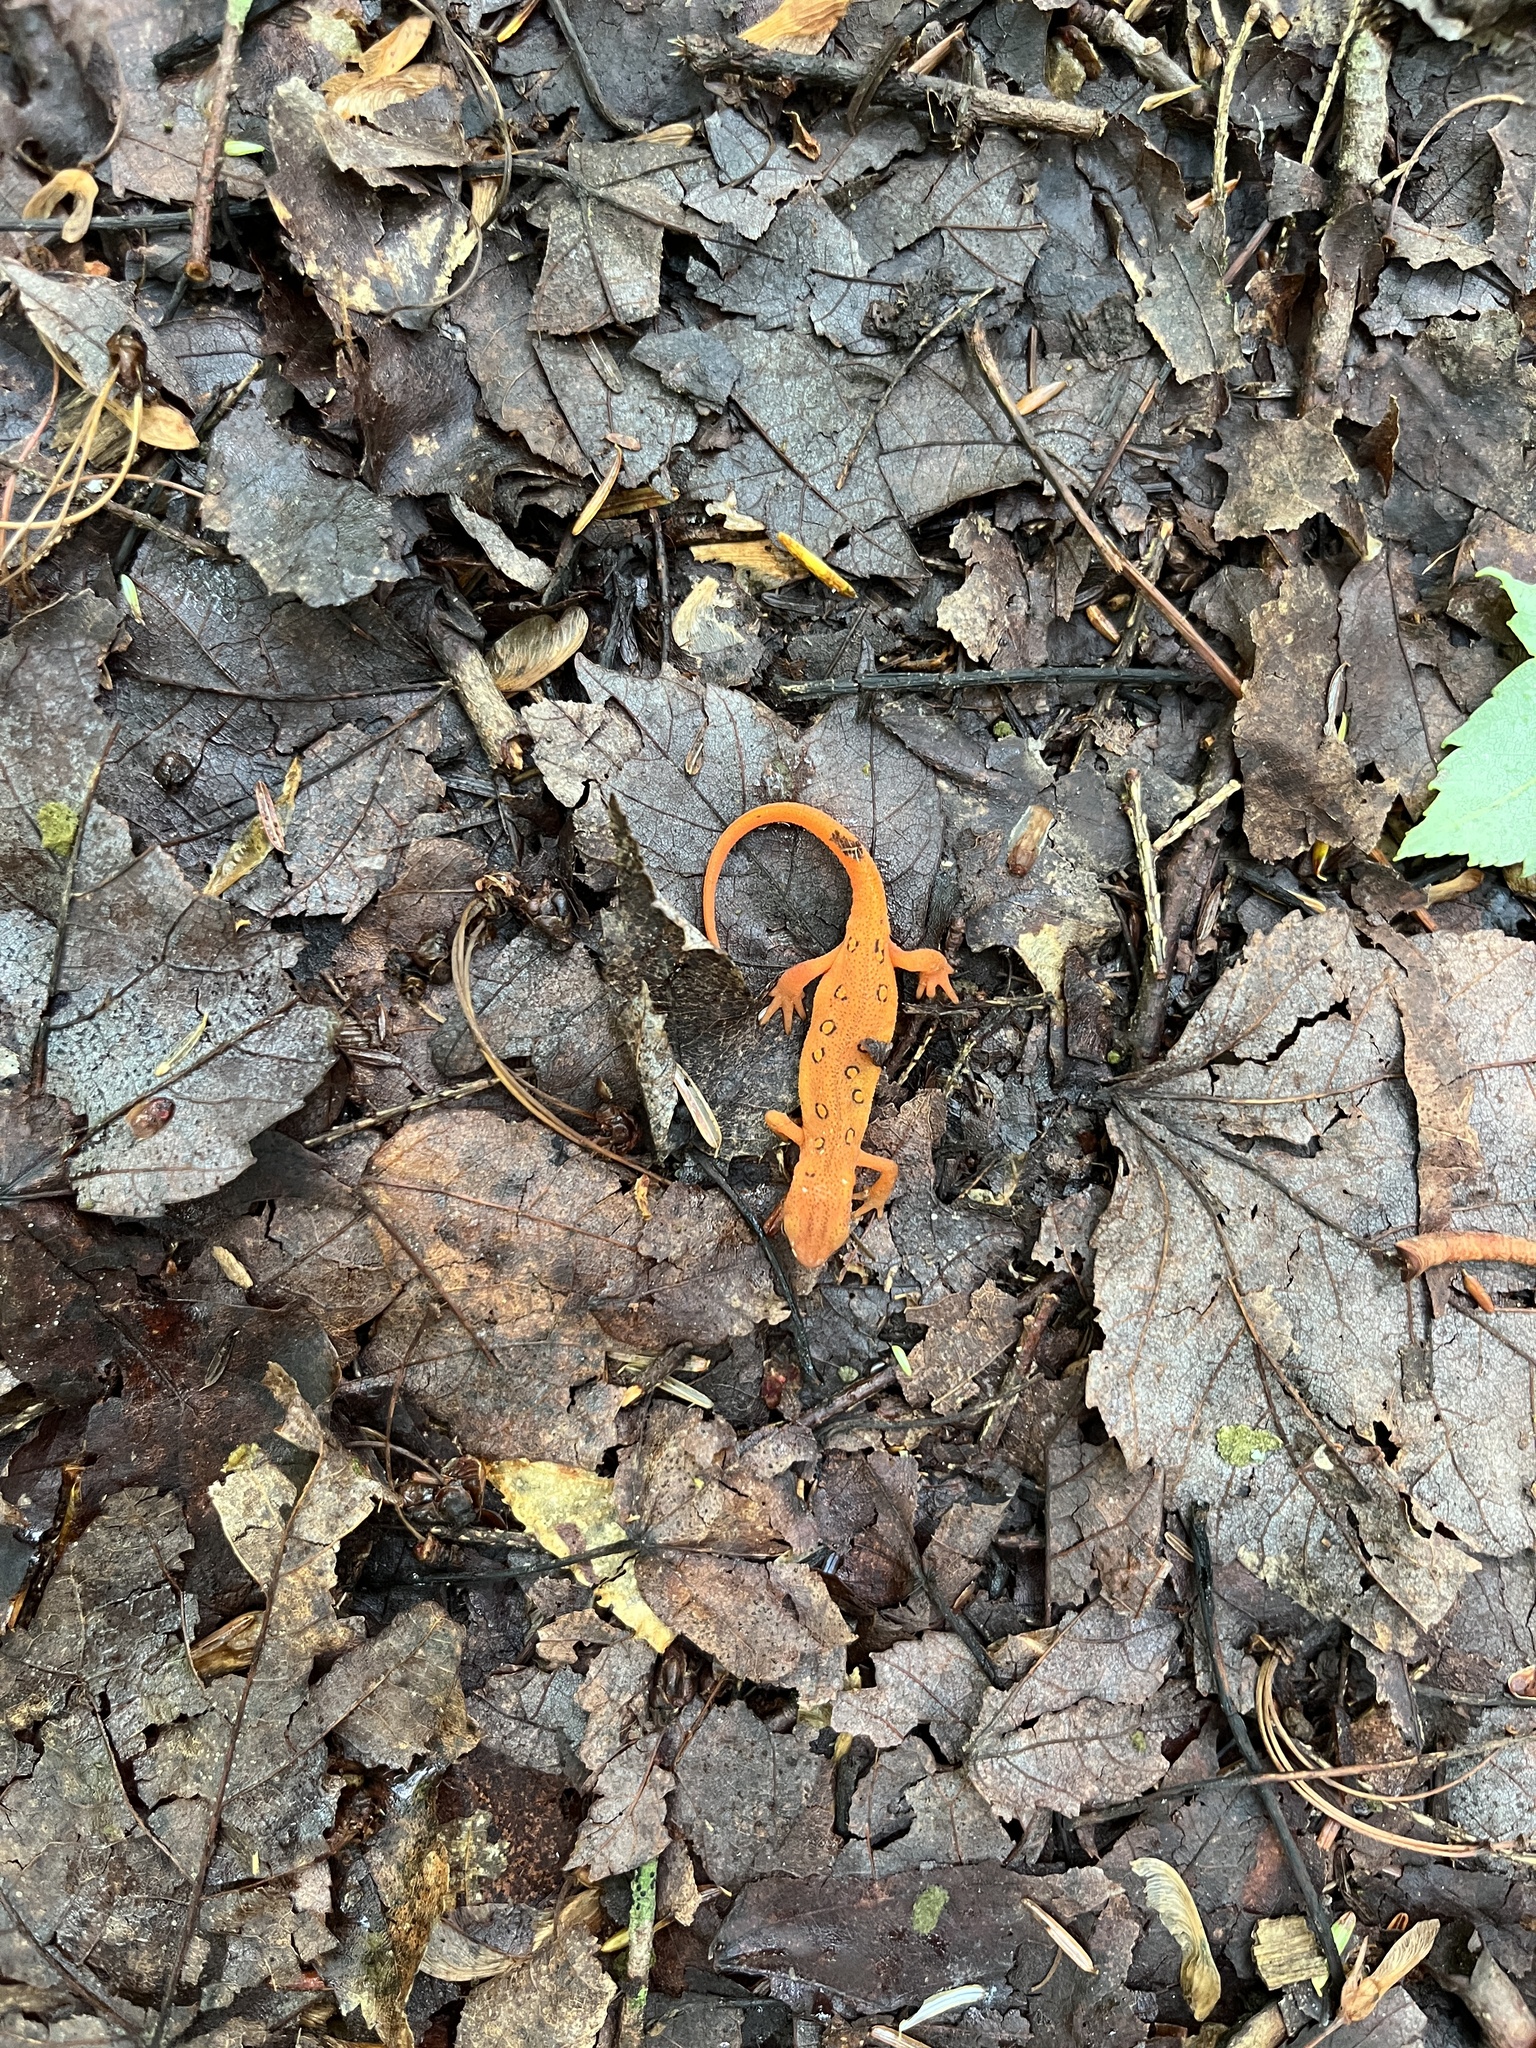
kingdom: Animalia
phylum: Chordata
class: Amphibia
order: Caudata
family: Salamandridae
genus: Notophthalmus
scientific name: Notophthalmus viridescens
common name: Eastern newt
